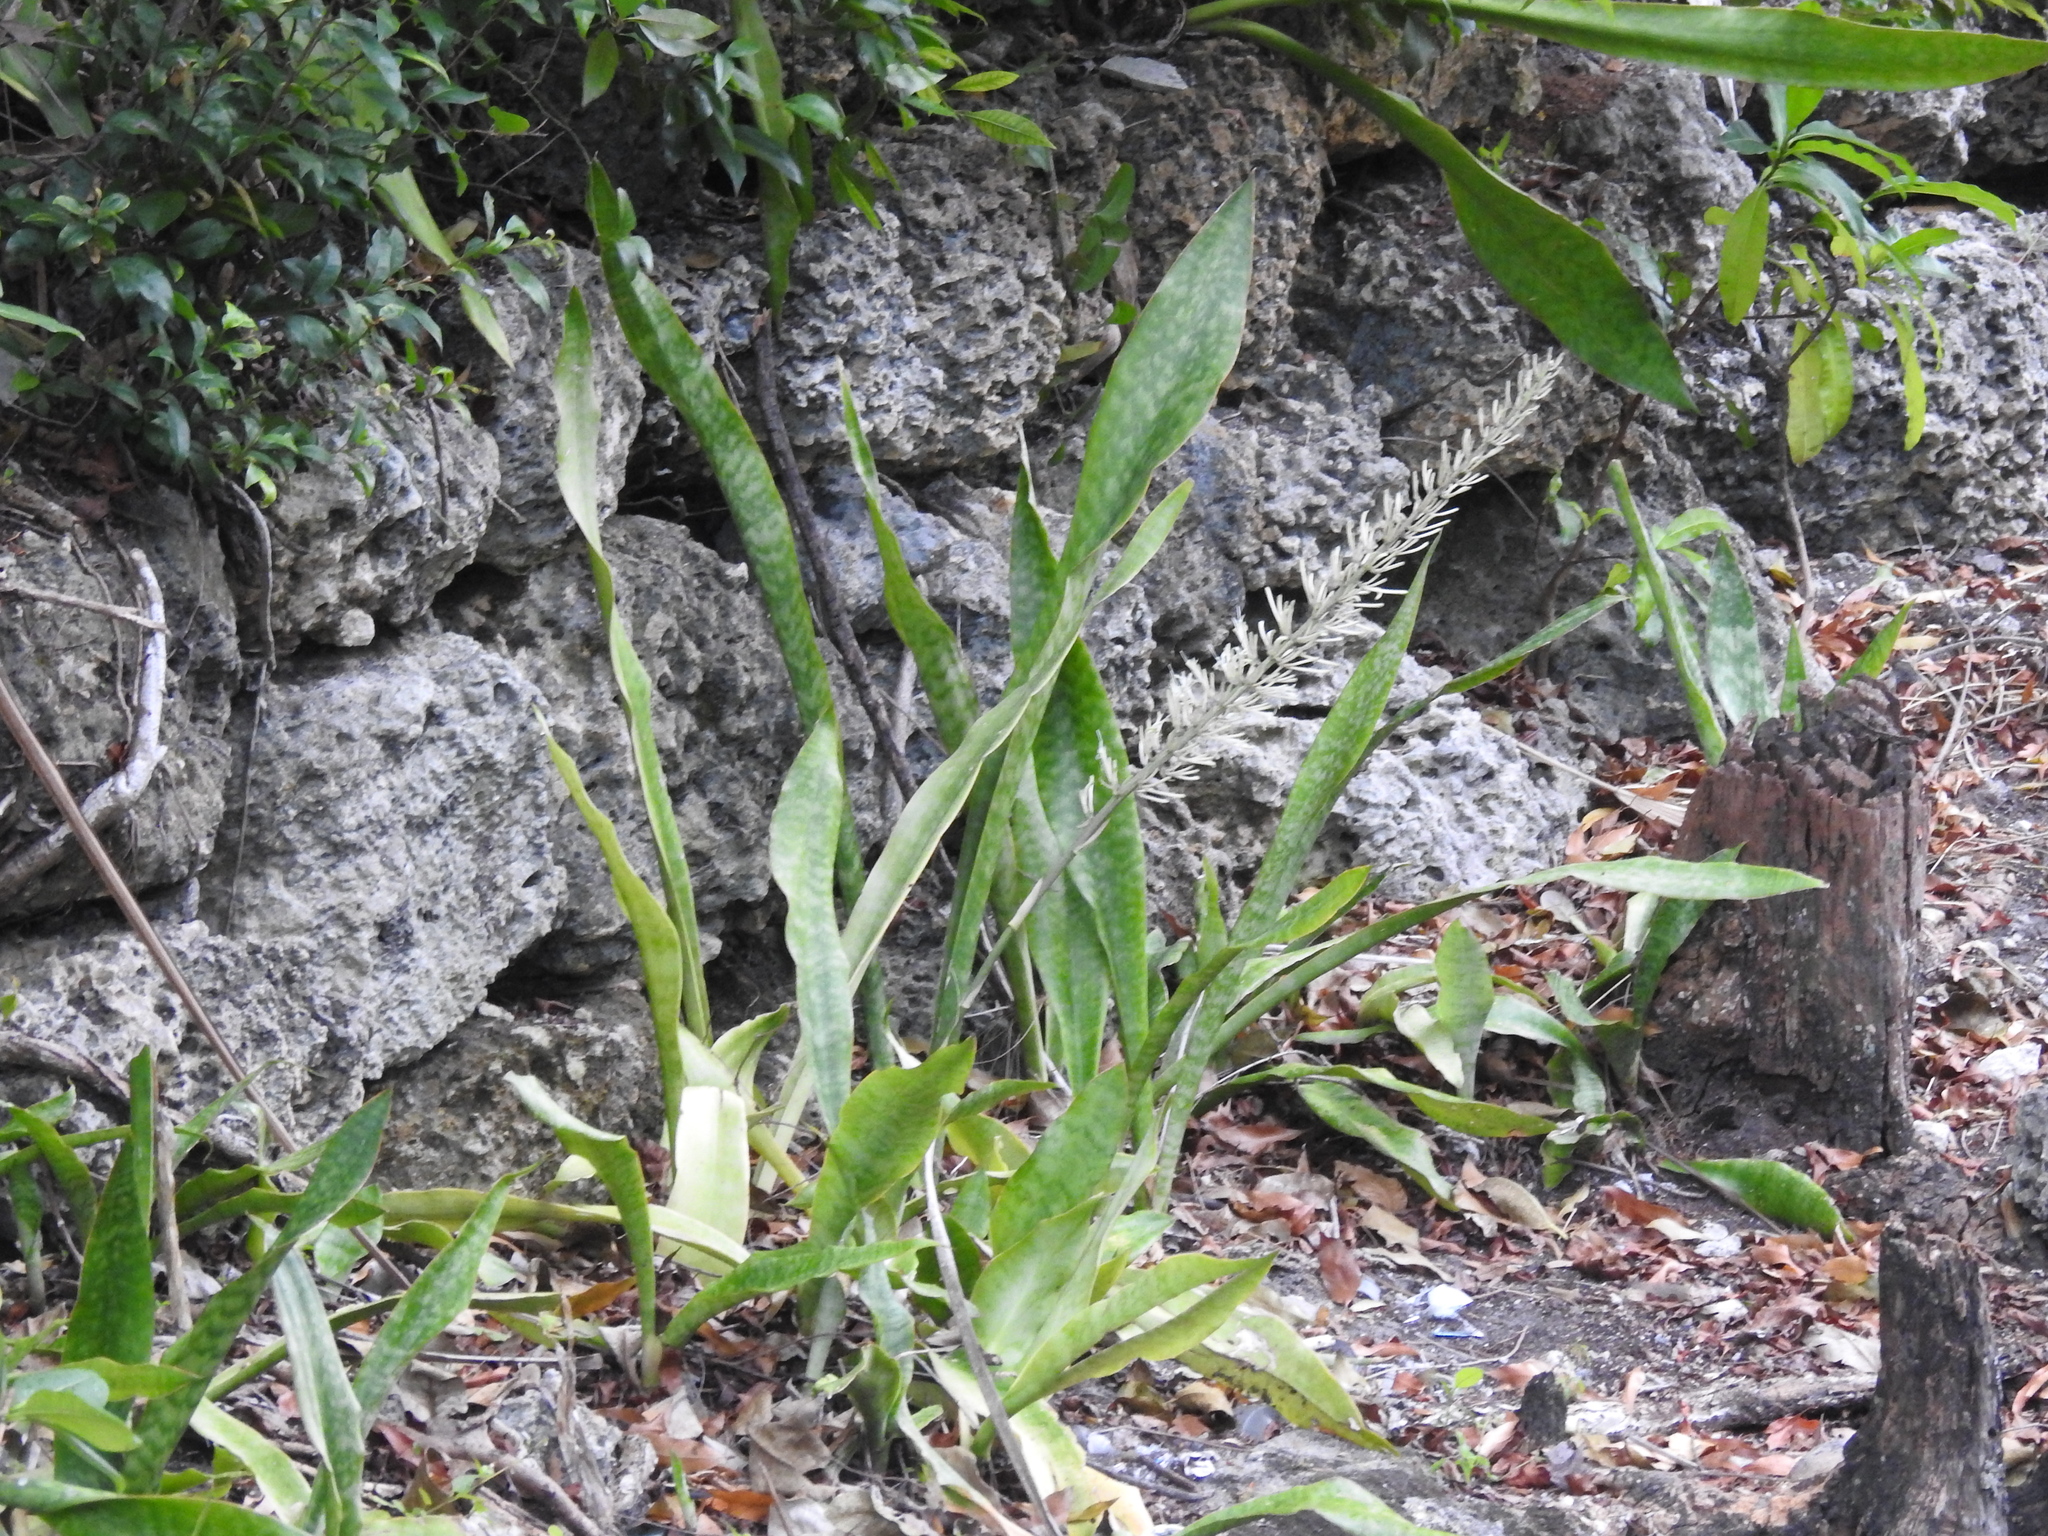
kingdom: Plantae
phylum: Tracheophyta
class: Liliopsida
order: Asparagales
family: Asparagaceae
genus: Dracaena
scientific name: Dracaena hyacinthoides
